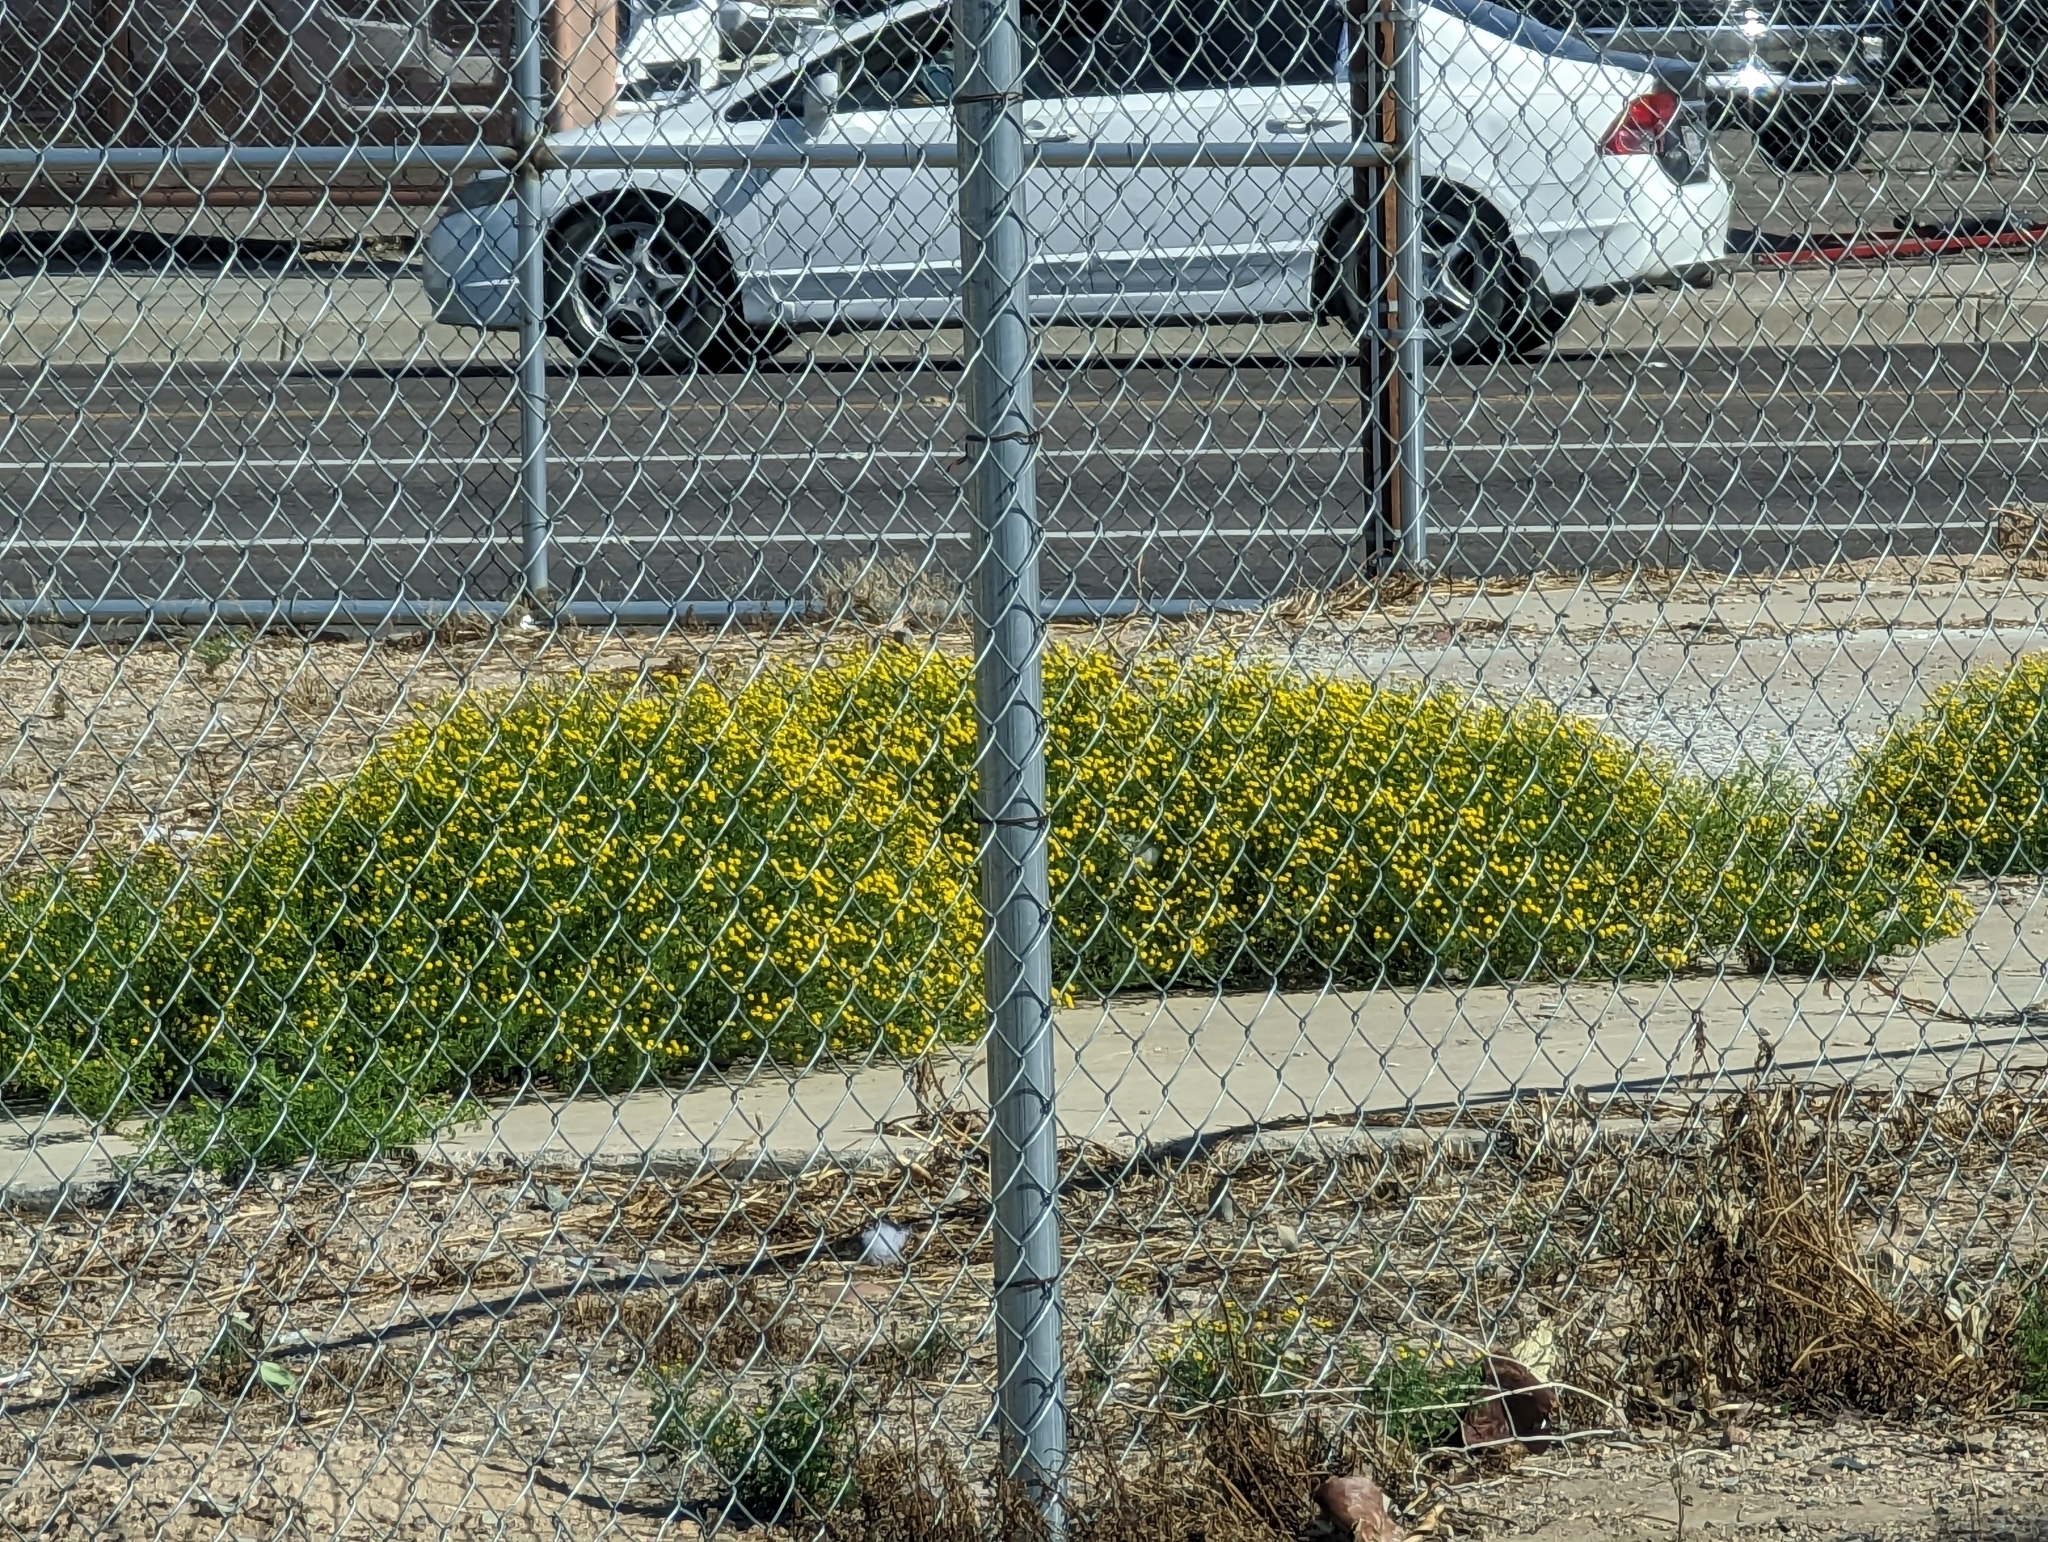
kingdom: Plantae
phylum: Tracheophyta
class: Magnoliopsida
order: Asterales
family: Asteraceae
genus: Oncosiphon
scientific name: Oncosiphon pilulifer
